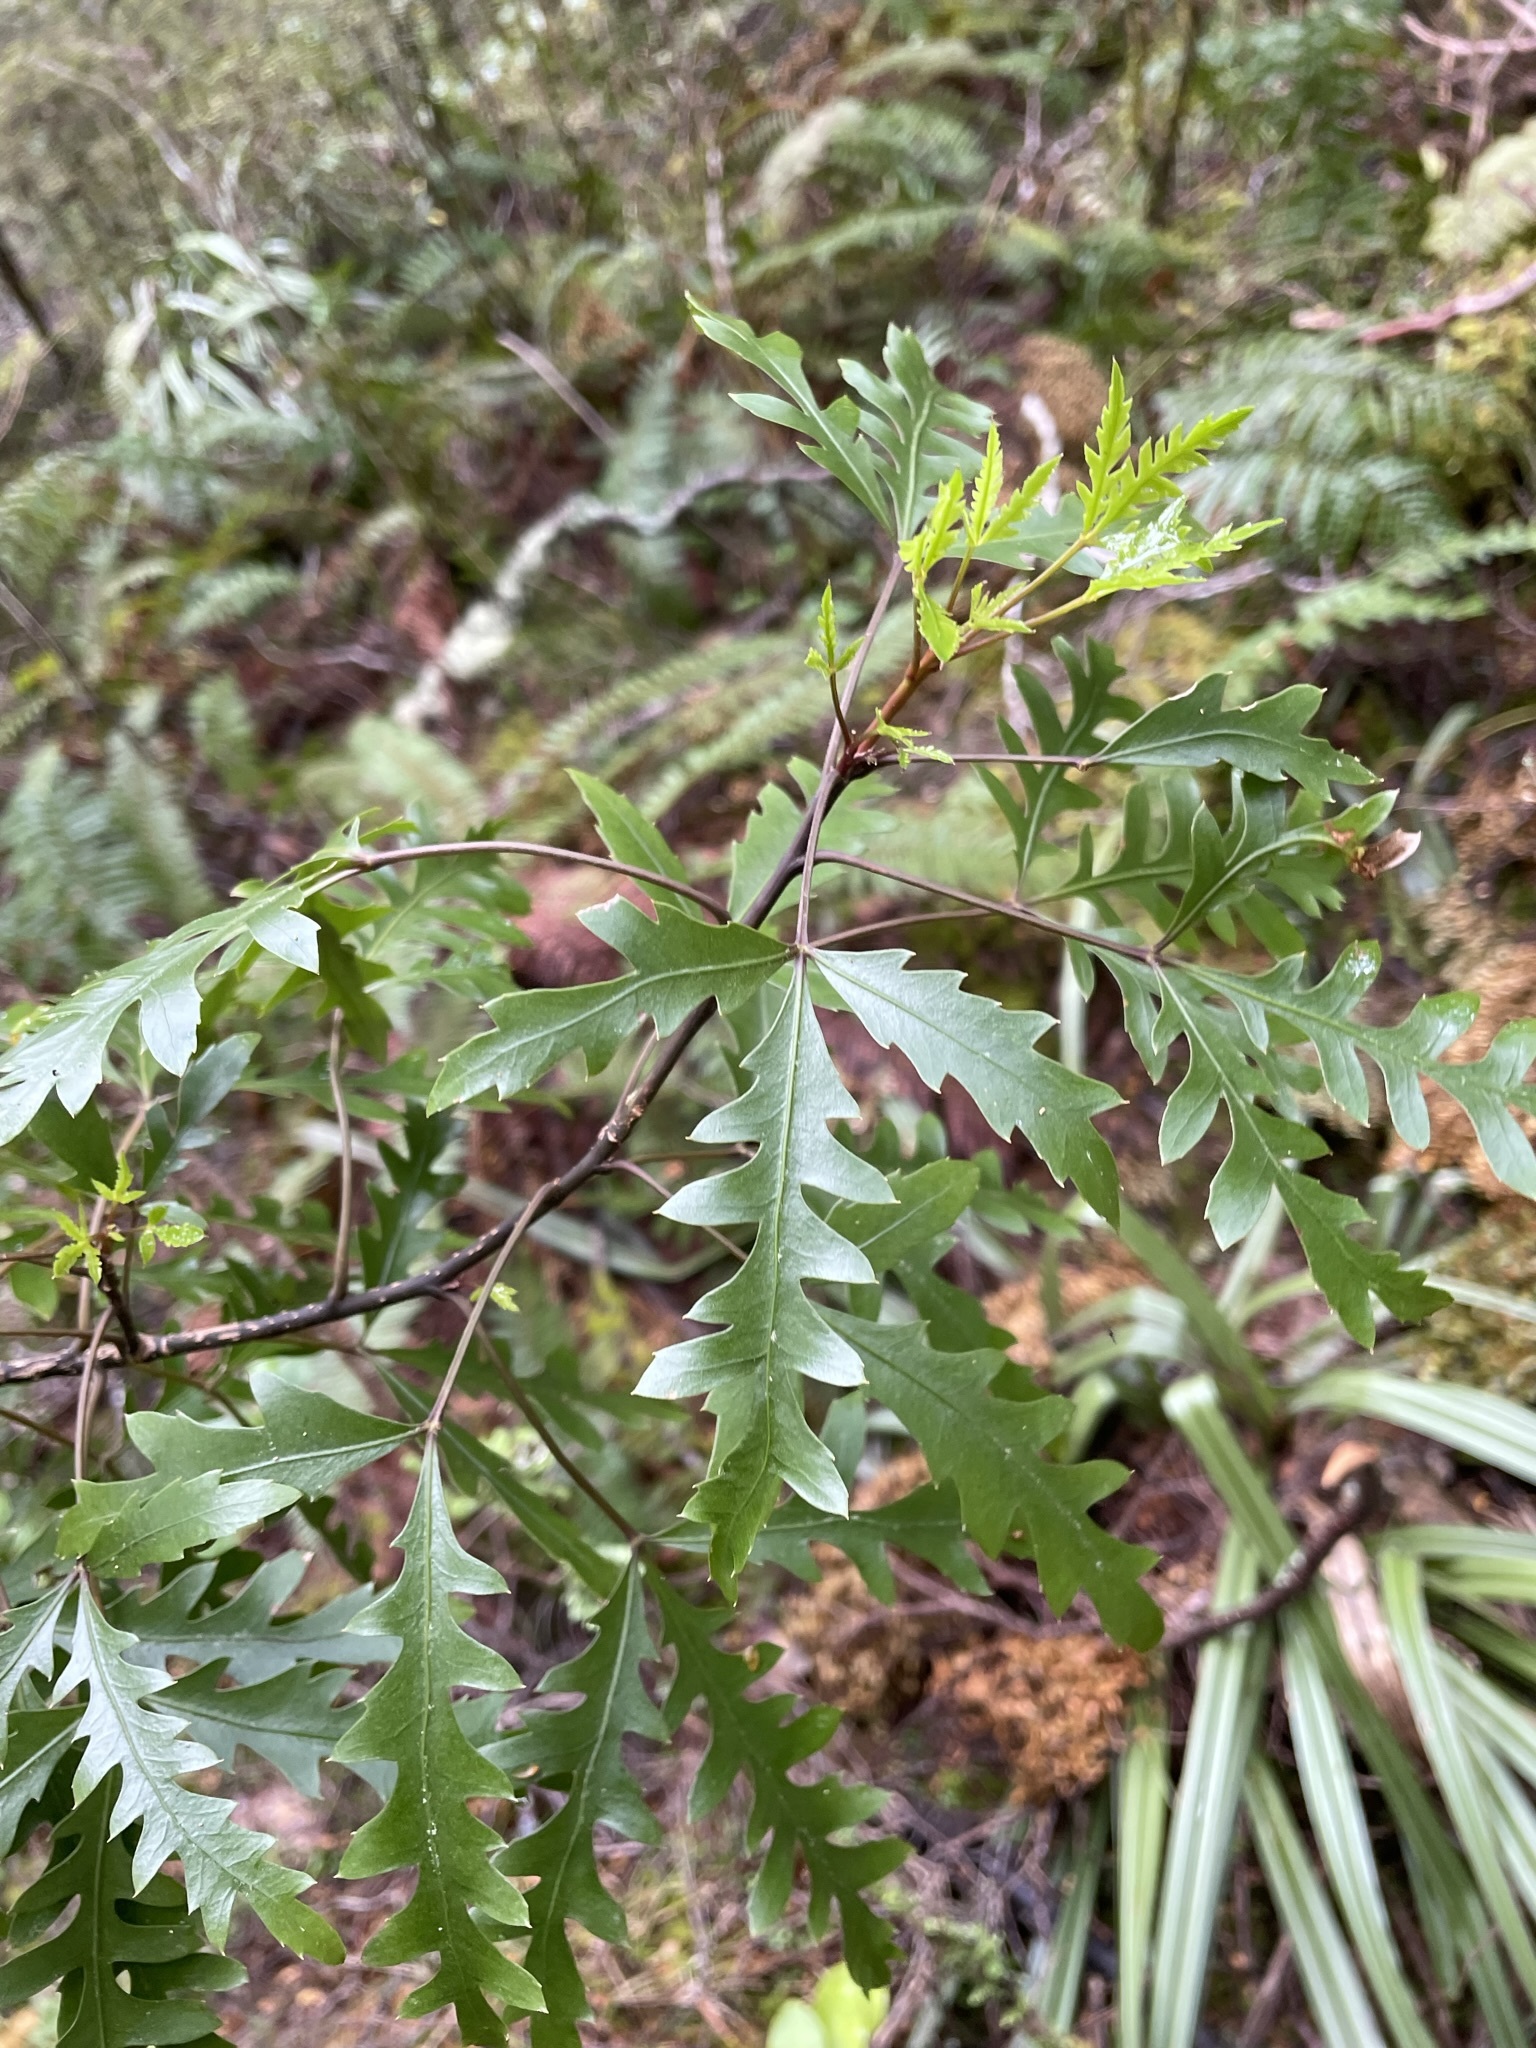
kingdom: Plantae
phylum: Tracheophyta
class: Magnoliopsida
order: Apiales
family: Araliaceae
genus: Raukaua
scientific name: Raukaua simplex
